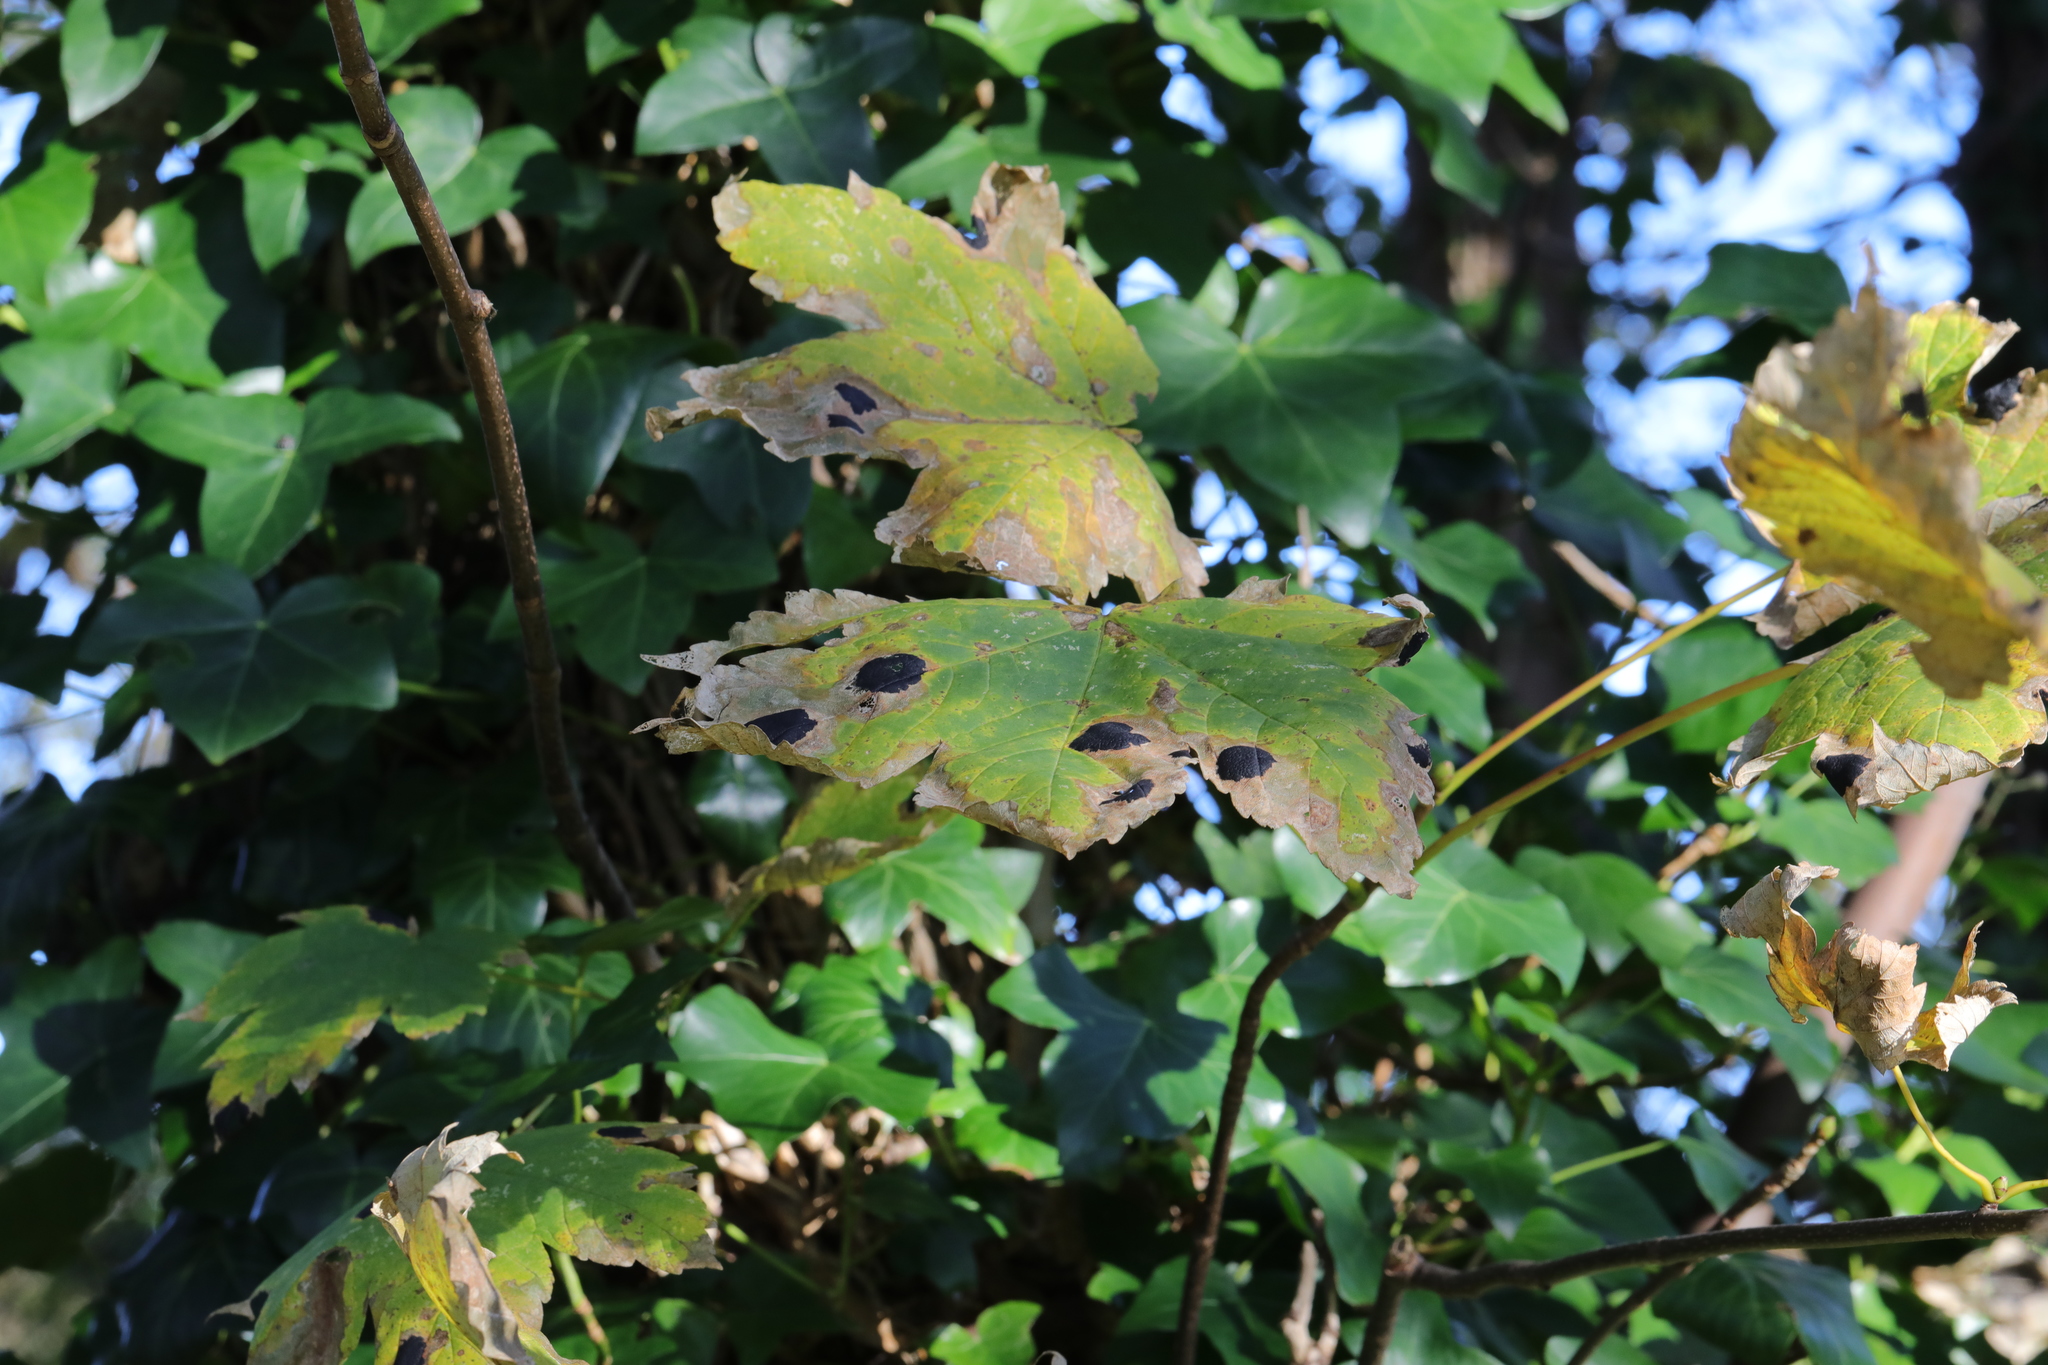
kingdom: Fungi
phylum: Ascomycota
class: Leotiomycetes
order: Rhytismatales
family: Rhytismataceae
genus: Rhytisma
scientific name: Rhytisma acerinum
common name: European tar spot
